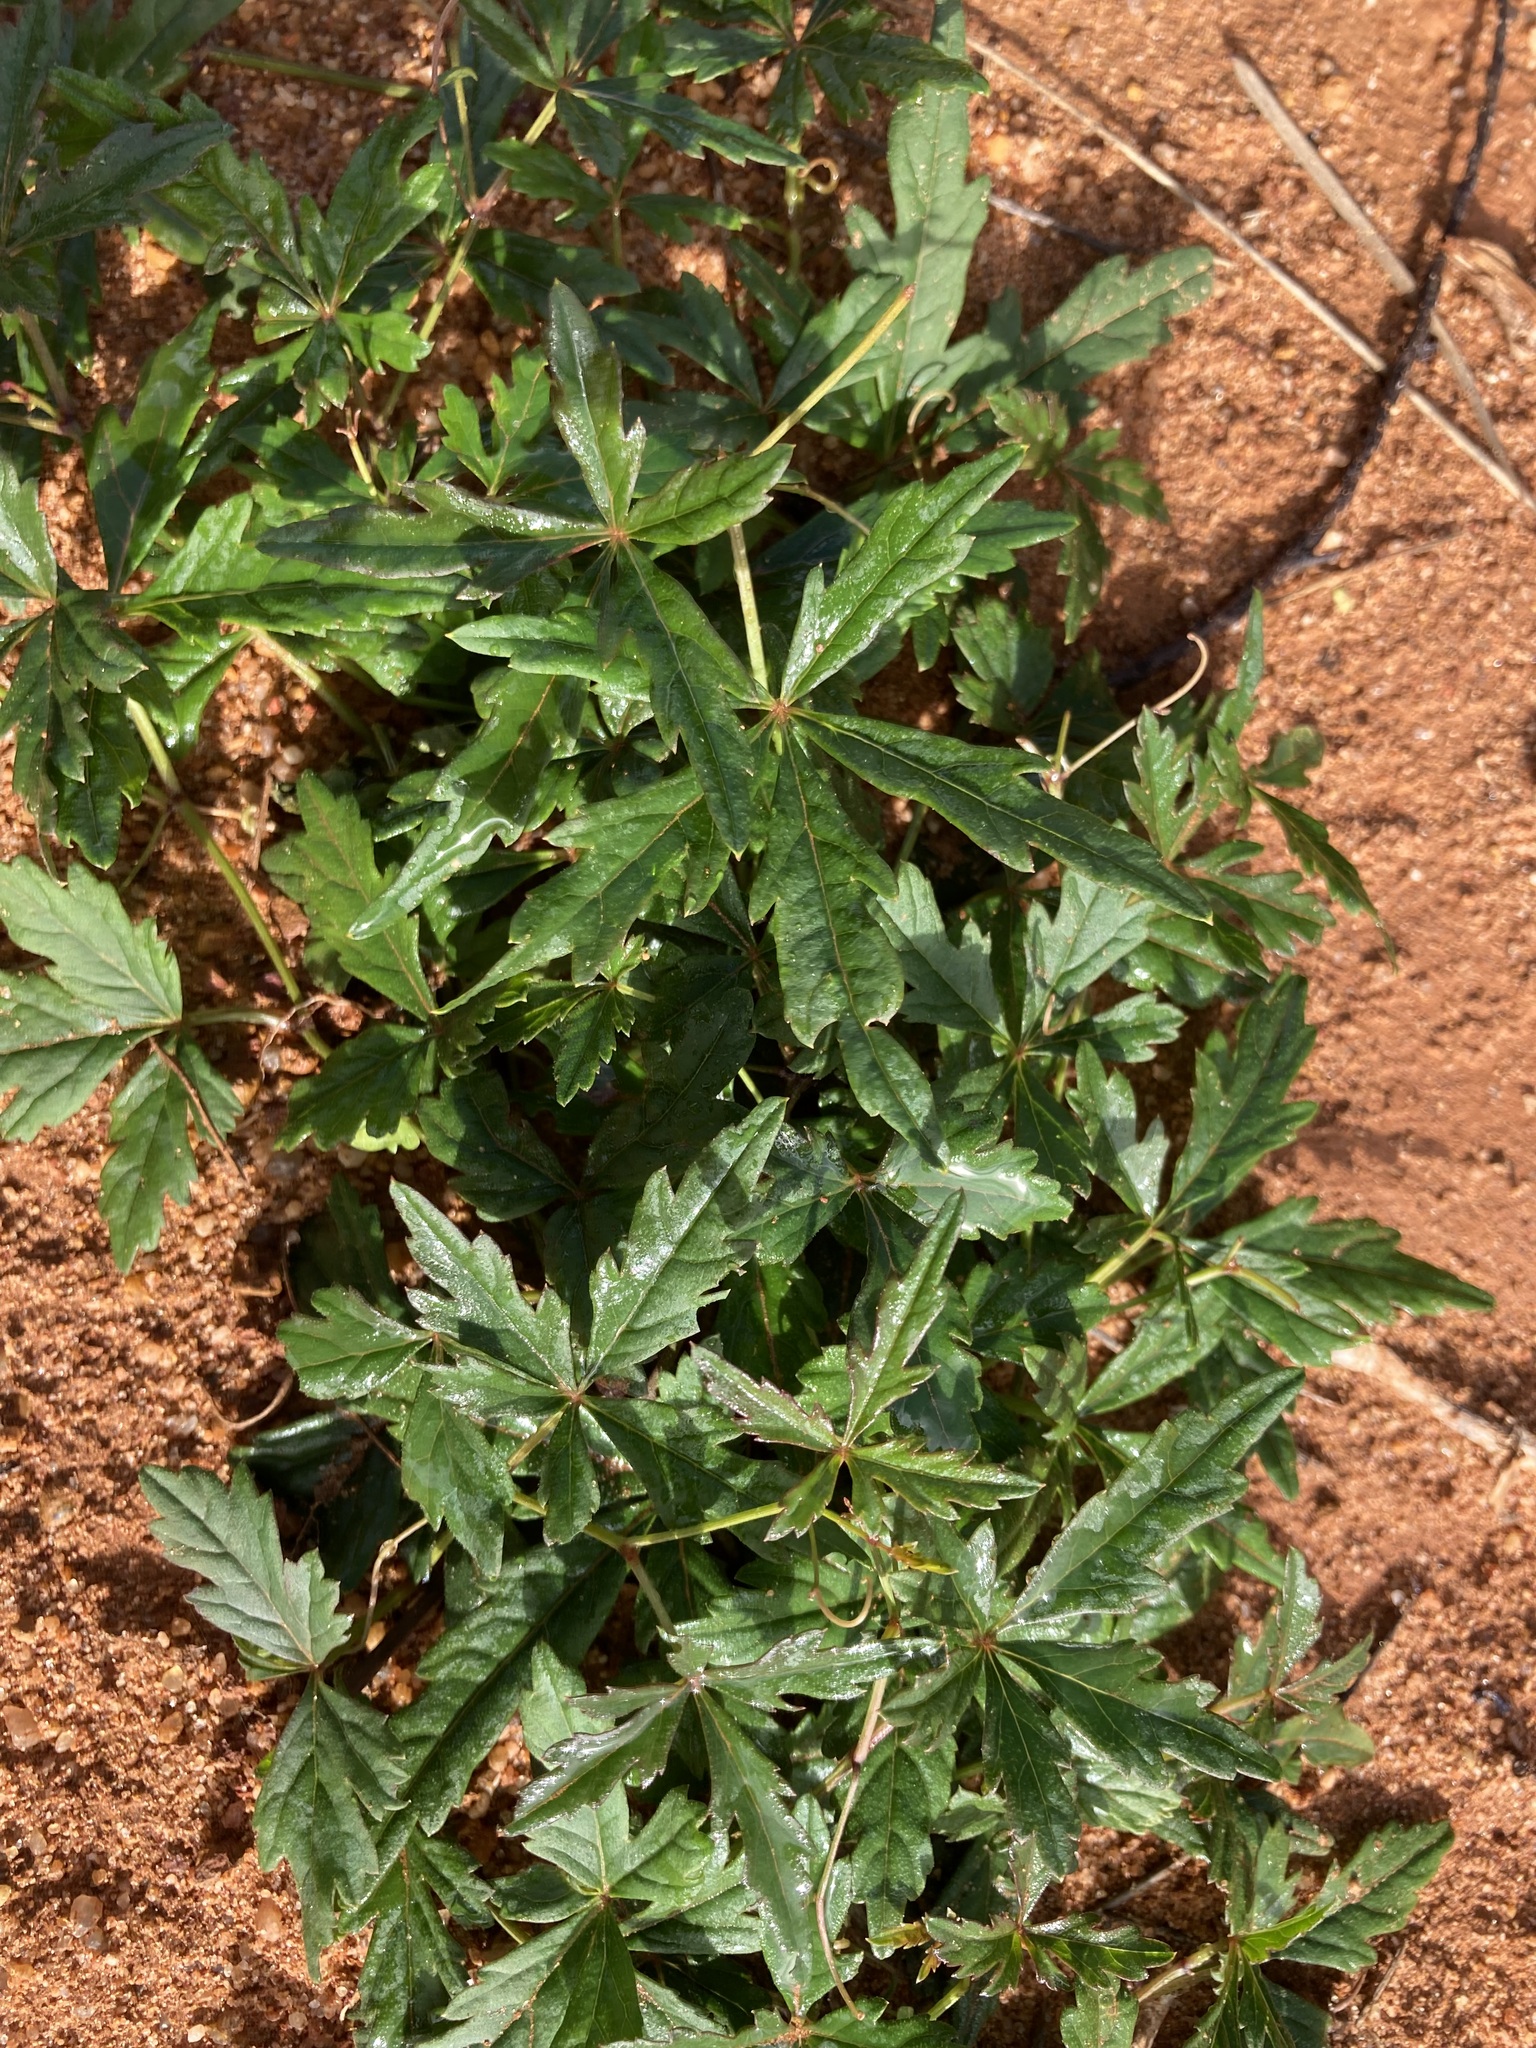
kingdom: Plantae
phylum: Tracheophyta
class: Magnoliopsida
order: Vitales
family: Vitaceae
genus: Clematicissus
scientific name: Clematicissus angustissima
